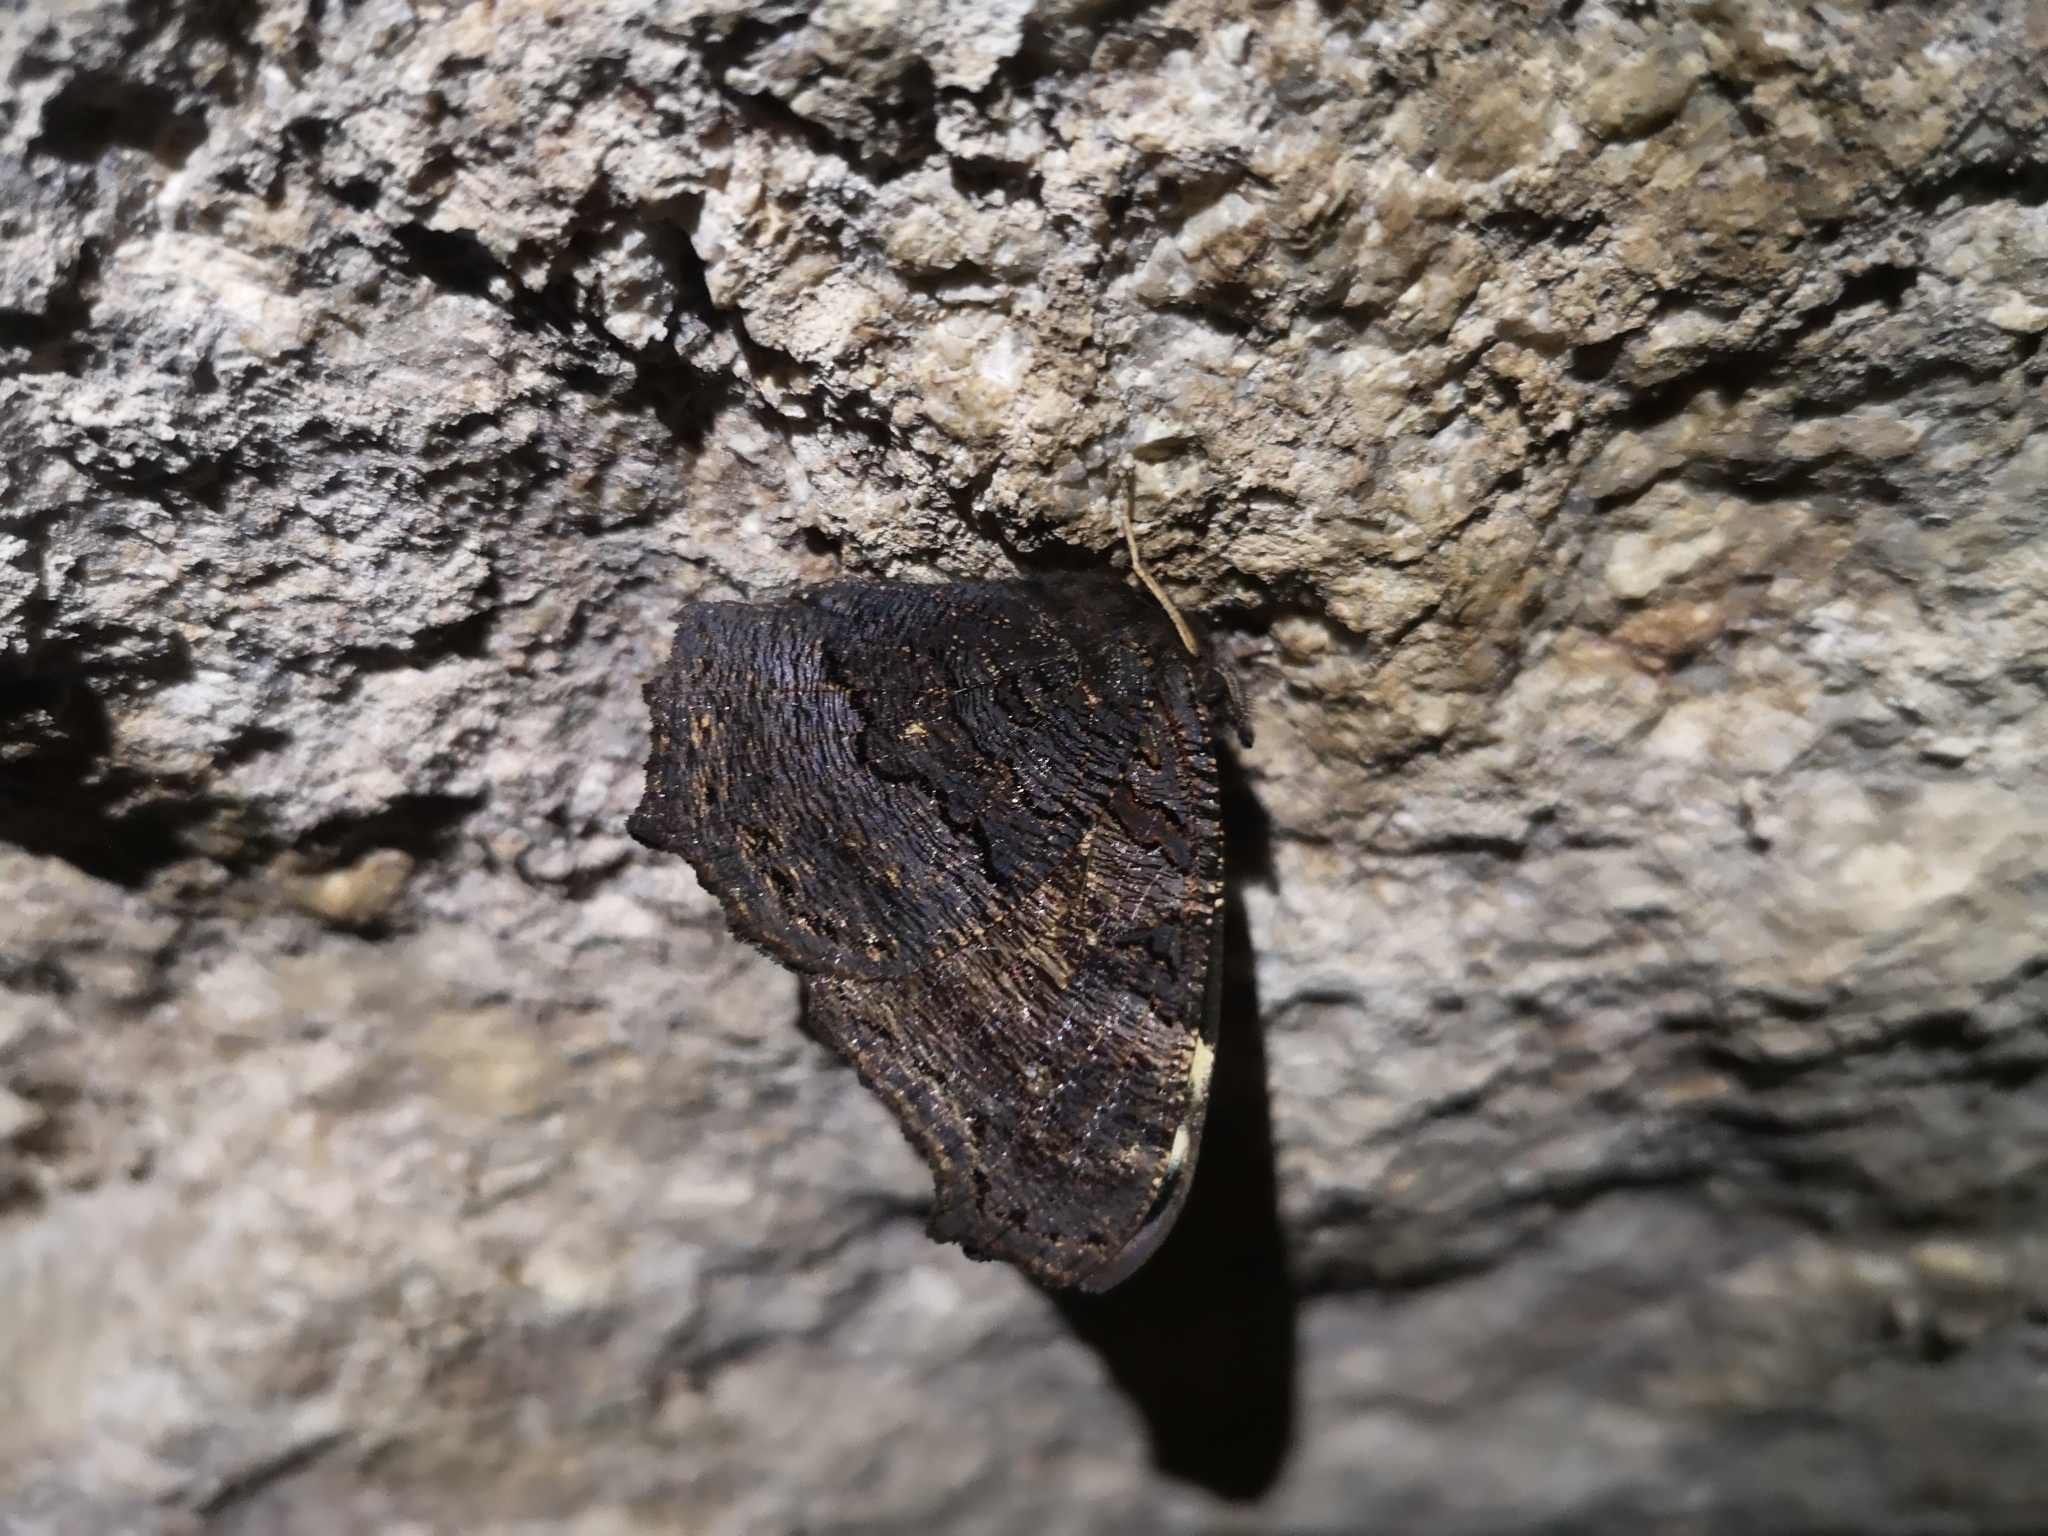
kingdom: Animalia
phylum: Arthropoda
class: Insecta
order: Lepidoptera
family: Nymphalidae
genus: Aglais
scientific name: Aglais io
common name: Peacock
